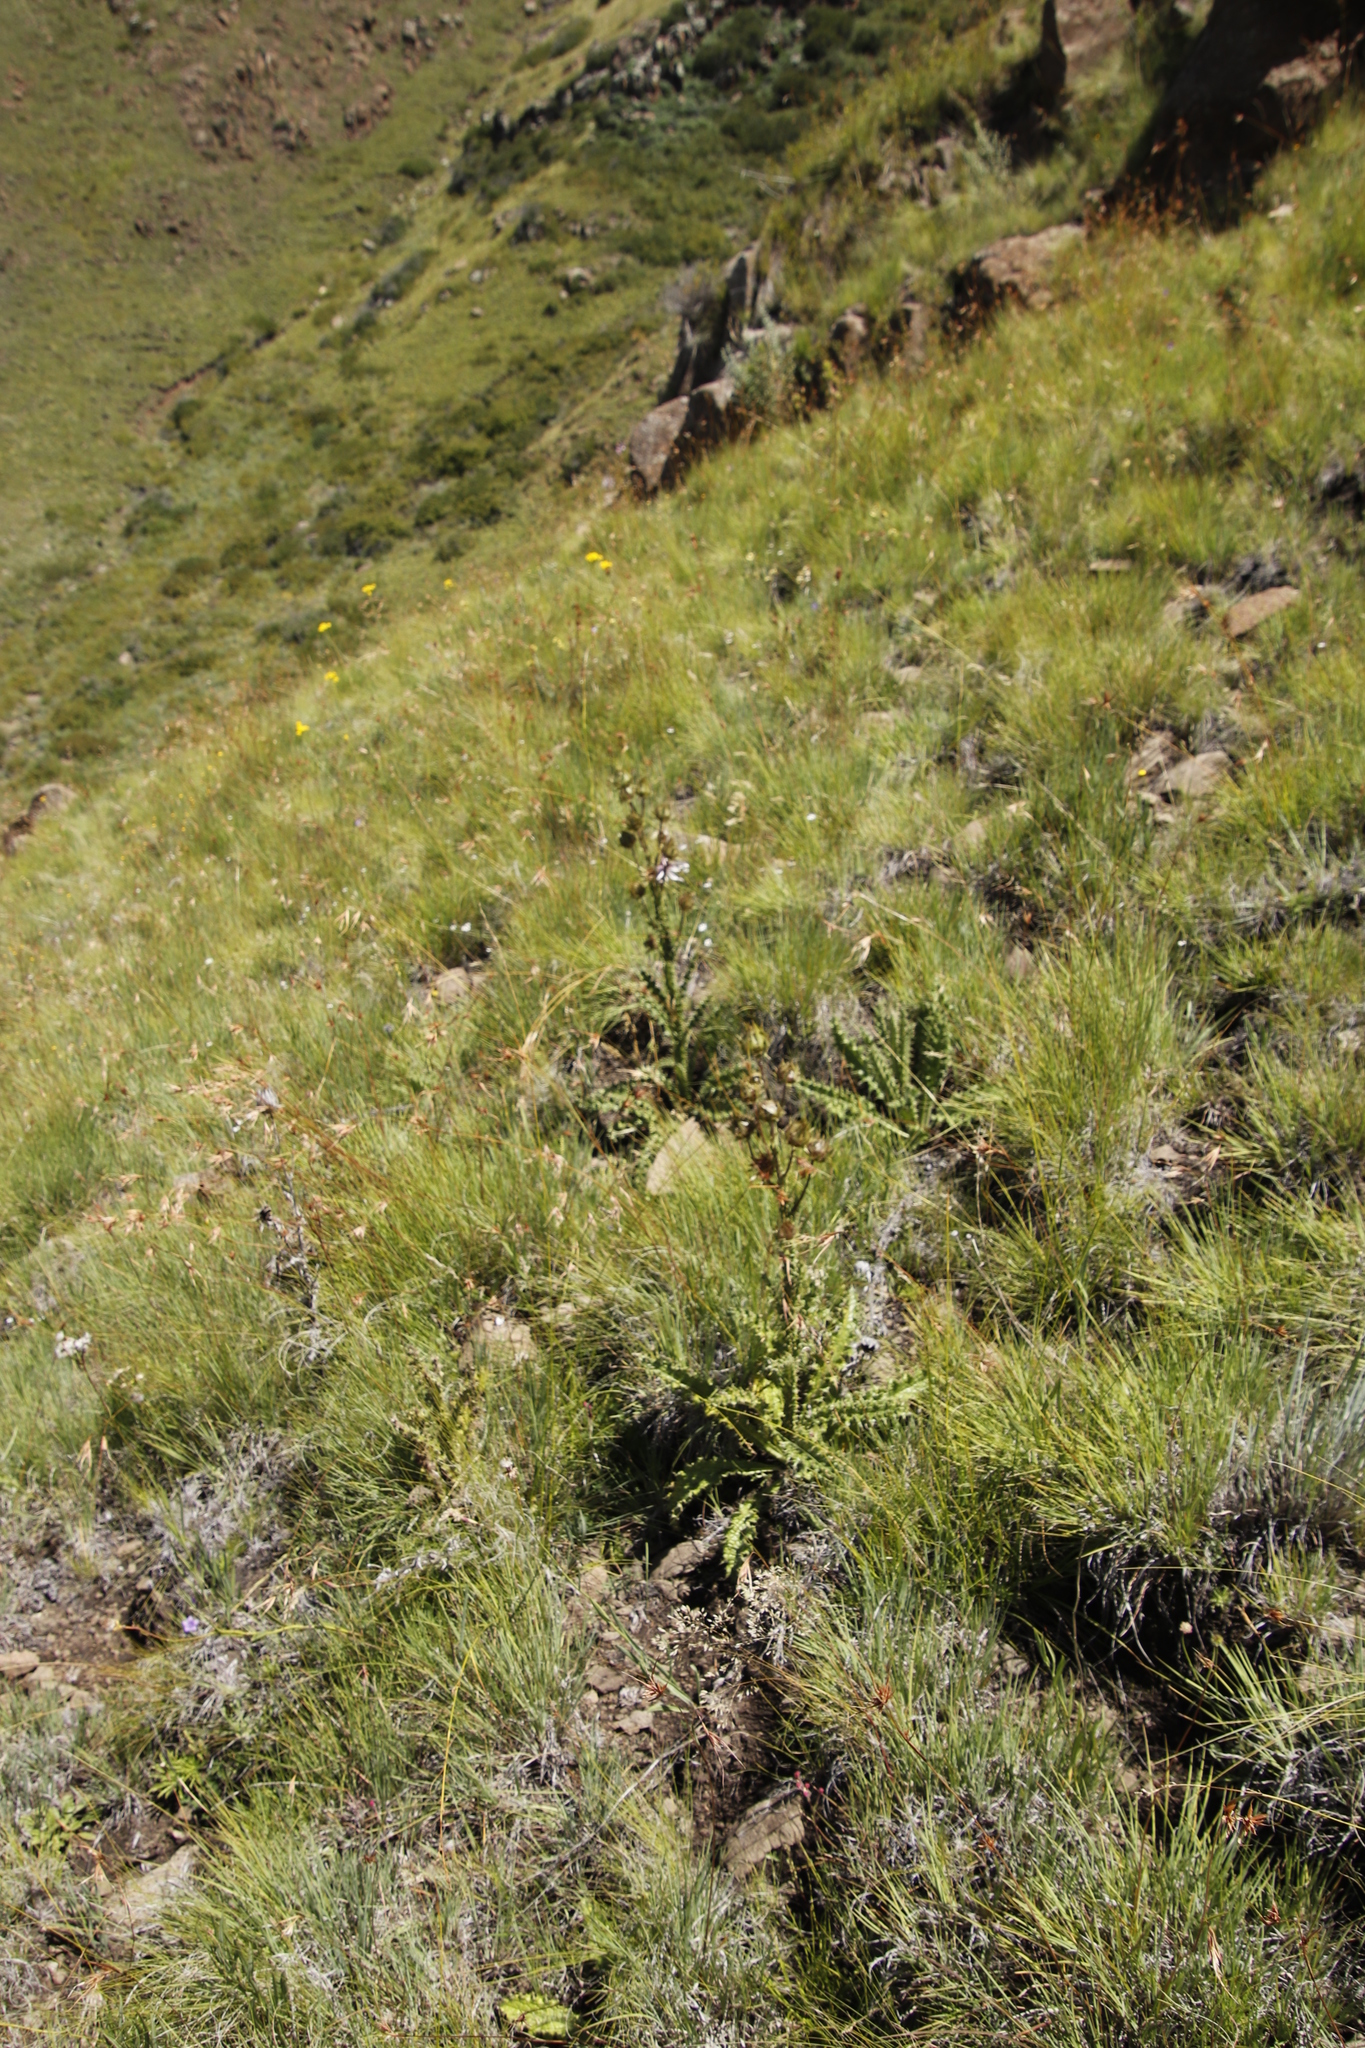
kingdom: Plantae
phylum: Tracheophyta
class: Magnoliopsida
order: Asterales
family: Asteraceae
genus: Berkheya
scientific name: Berkheya purpurea
